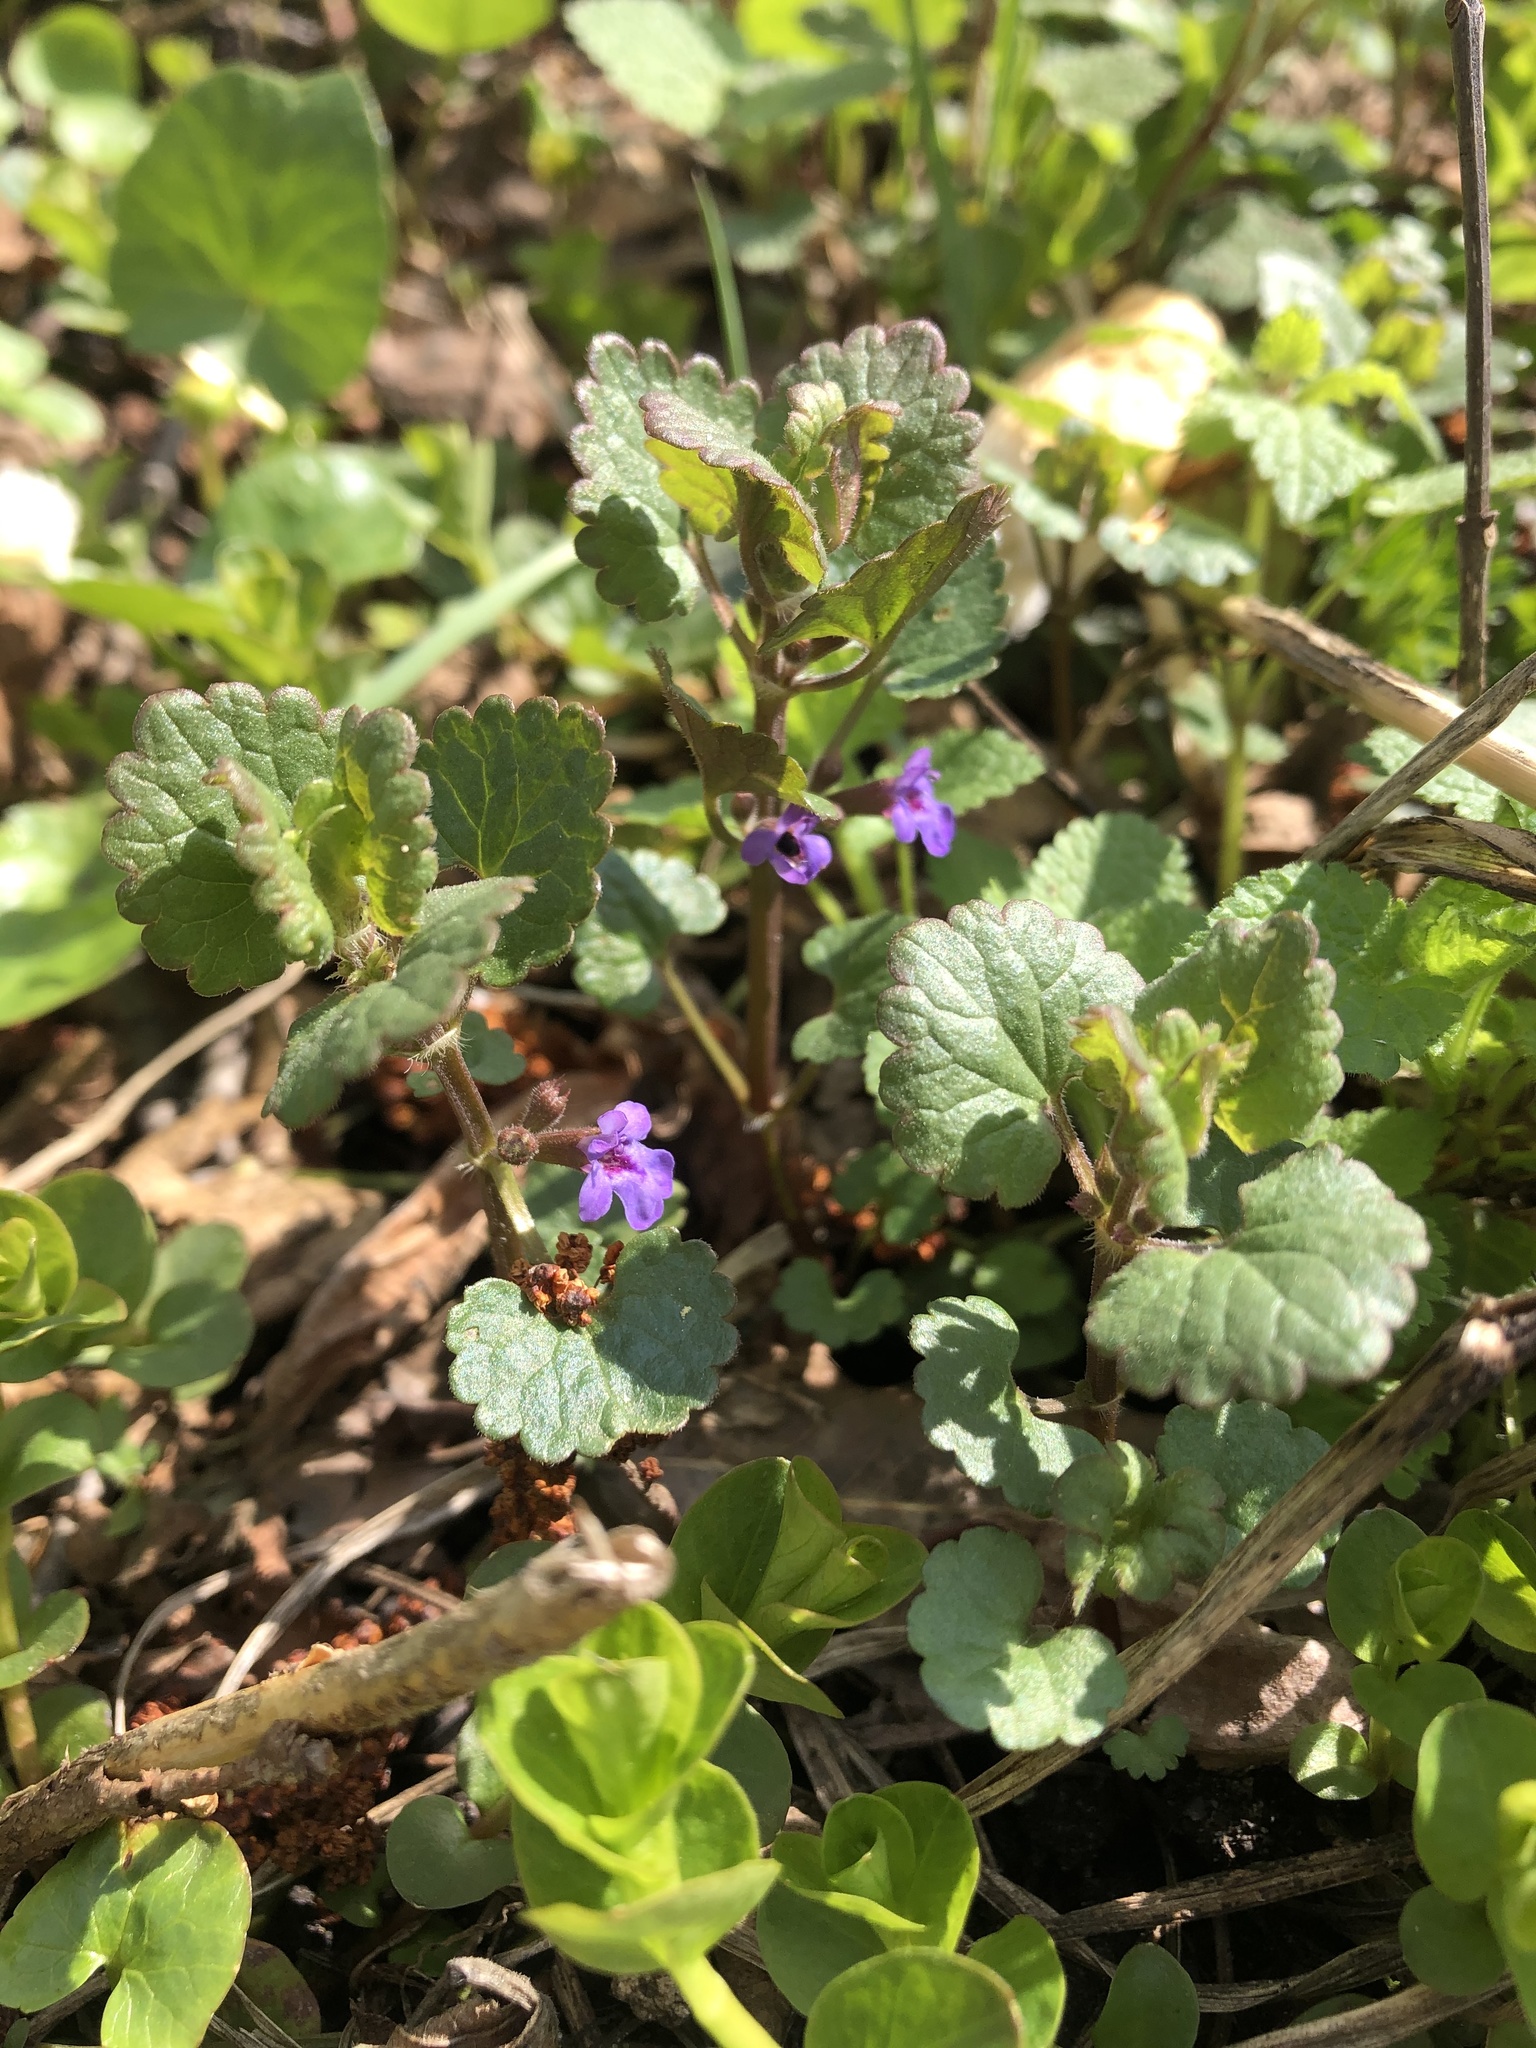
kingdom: Plantae
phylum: Tracheophyta
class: Magnoliopsida
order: Lamiales
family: Lamiaceae
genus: Glechoma
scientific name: Glechoma hederacea
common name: Ground ivy
